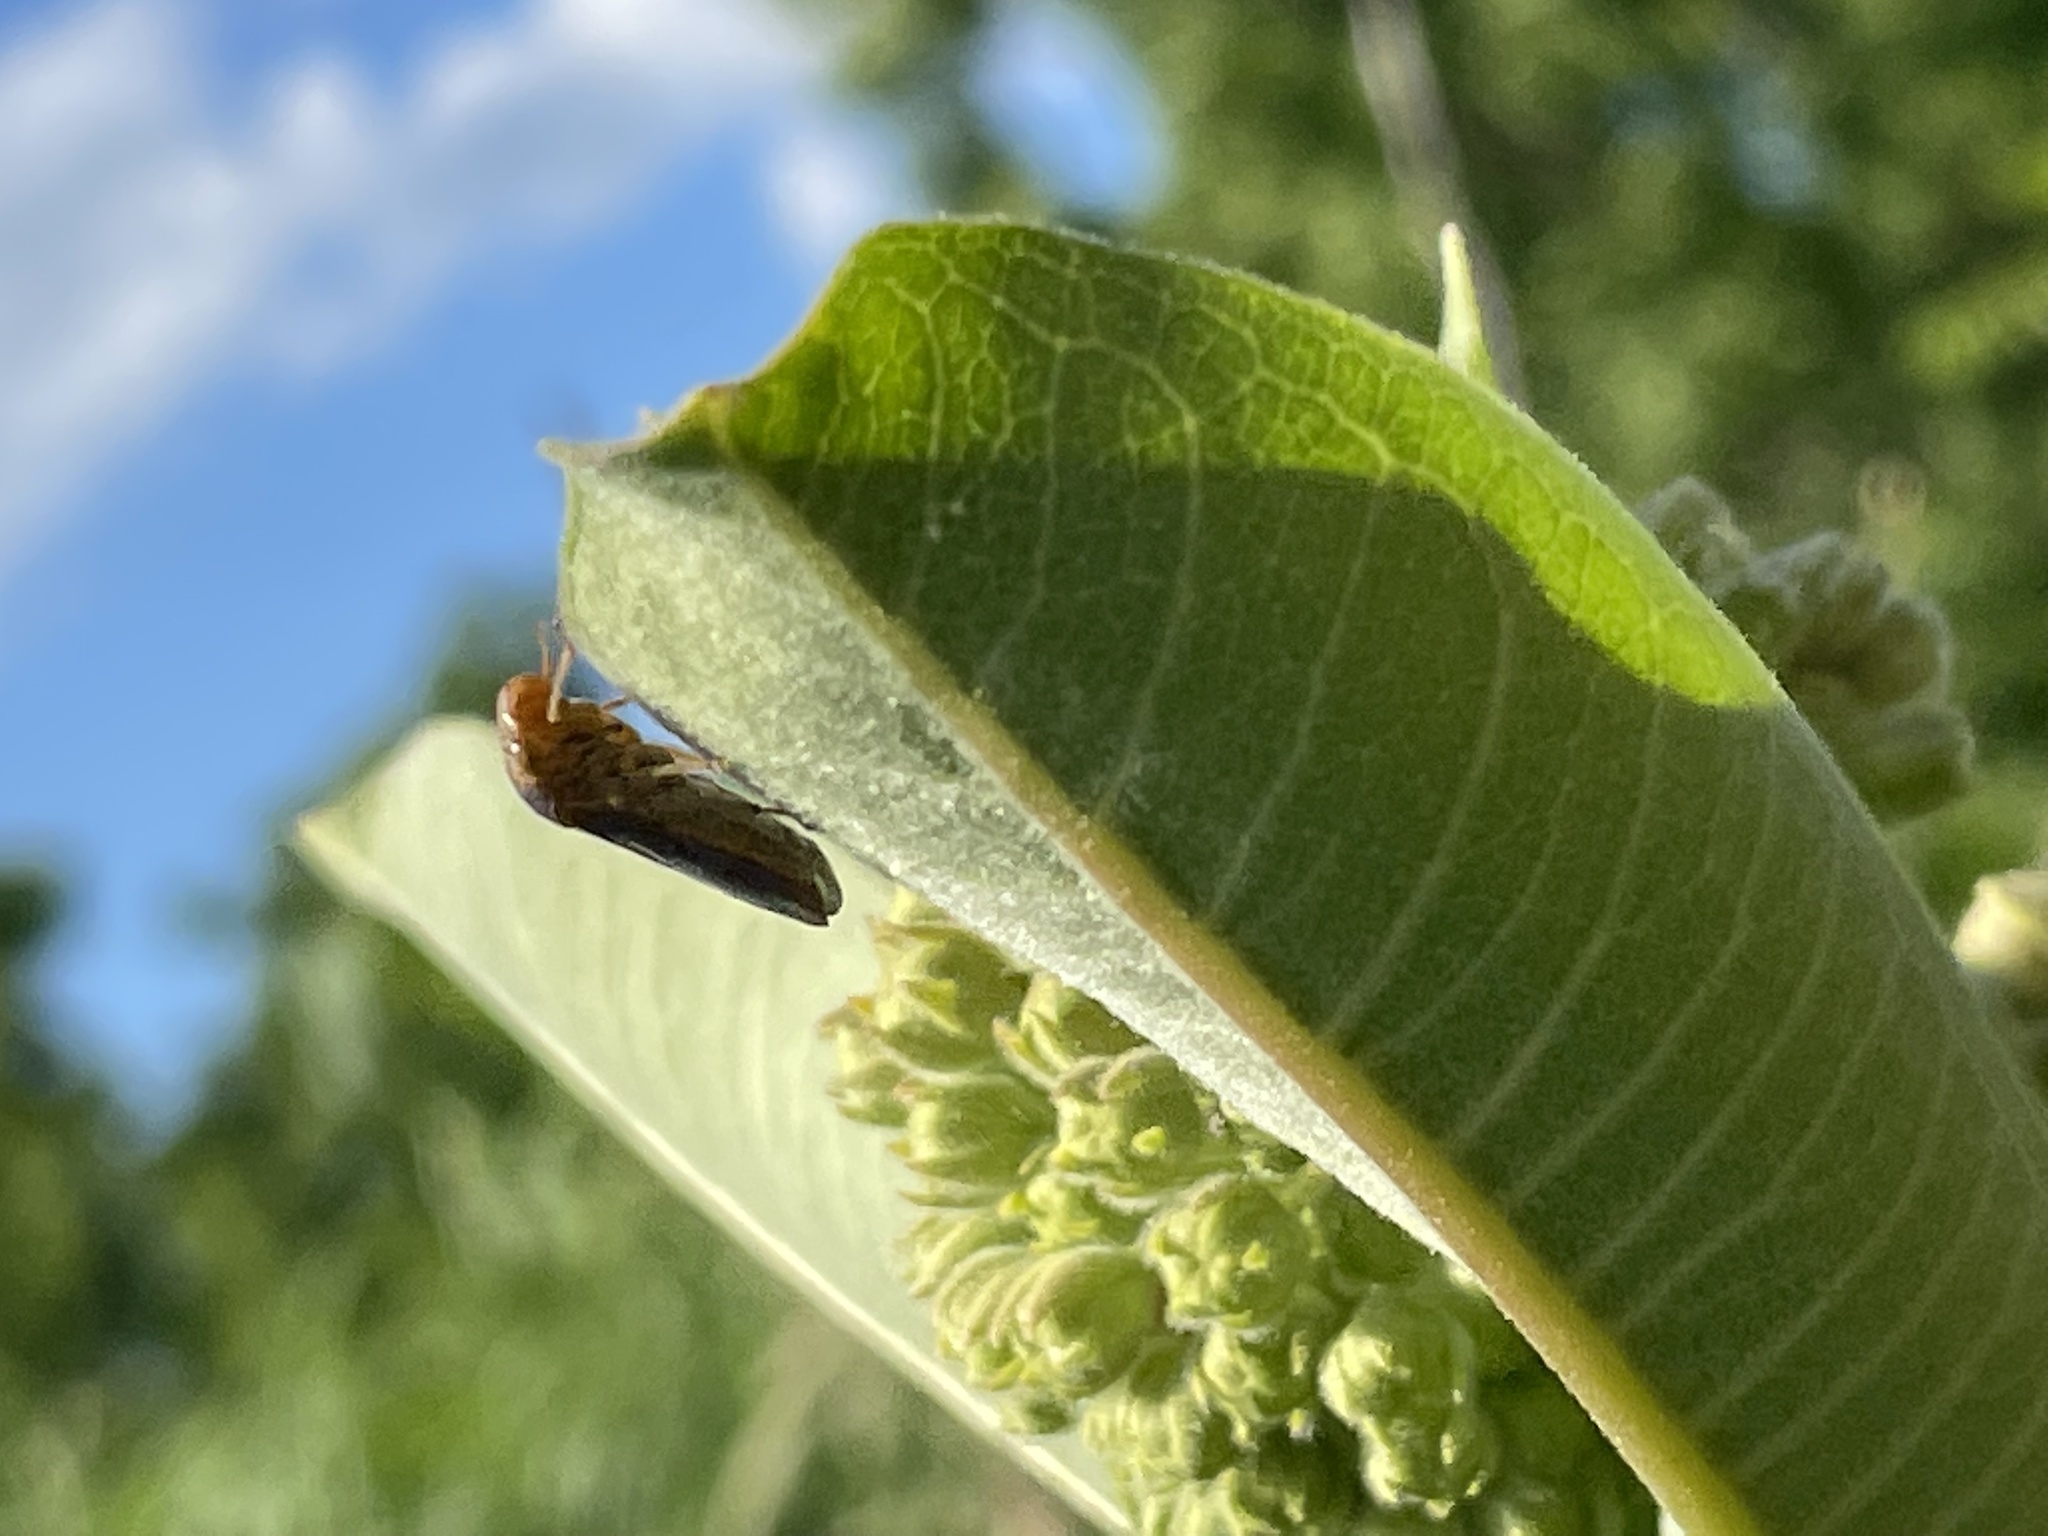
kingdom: Animalia
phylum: Arthropoda
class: Insecta
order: Hemiptera
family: Cicadellidae
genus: Oncometopia
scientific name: Oncometopia orbona
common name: Broad-headed sharpshooter
